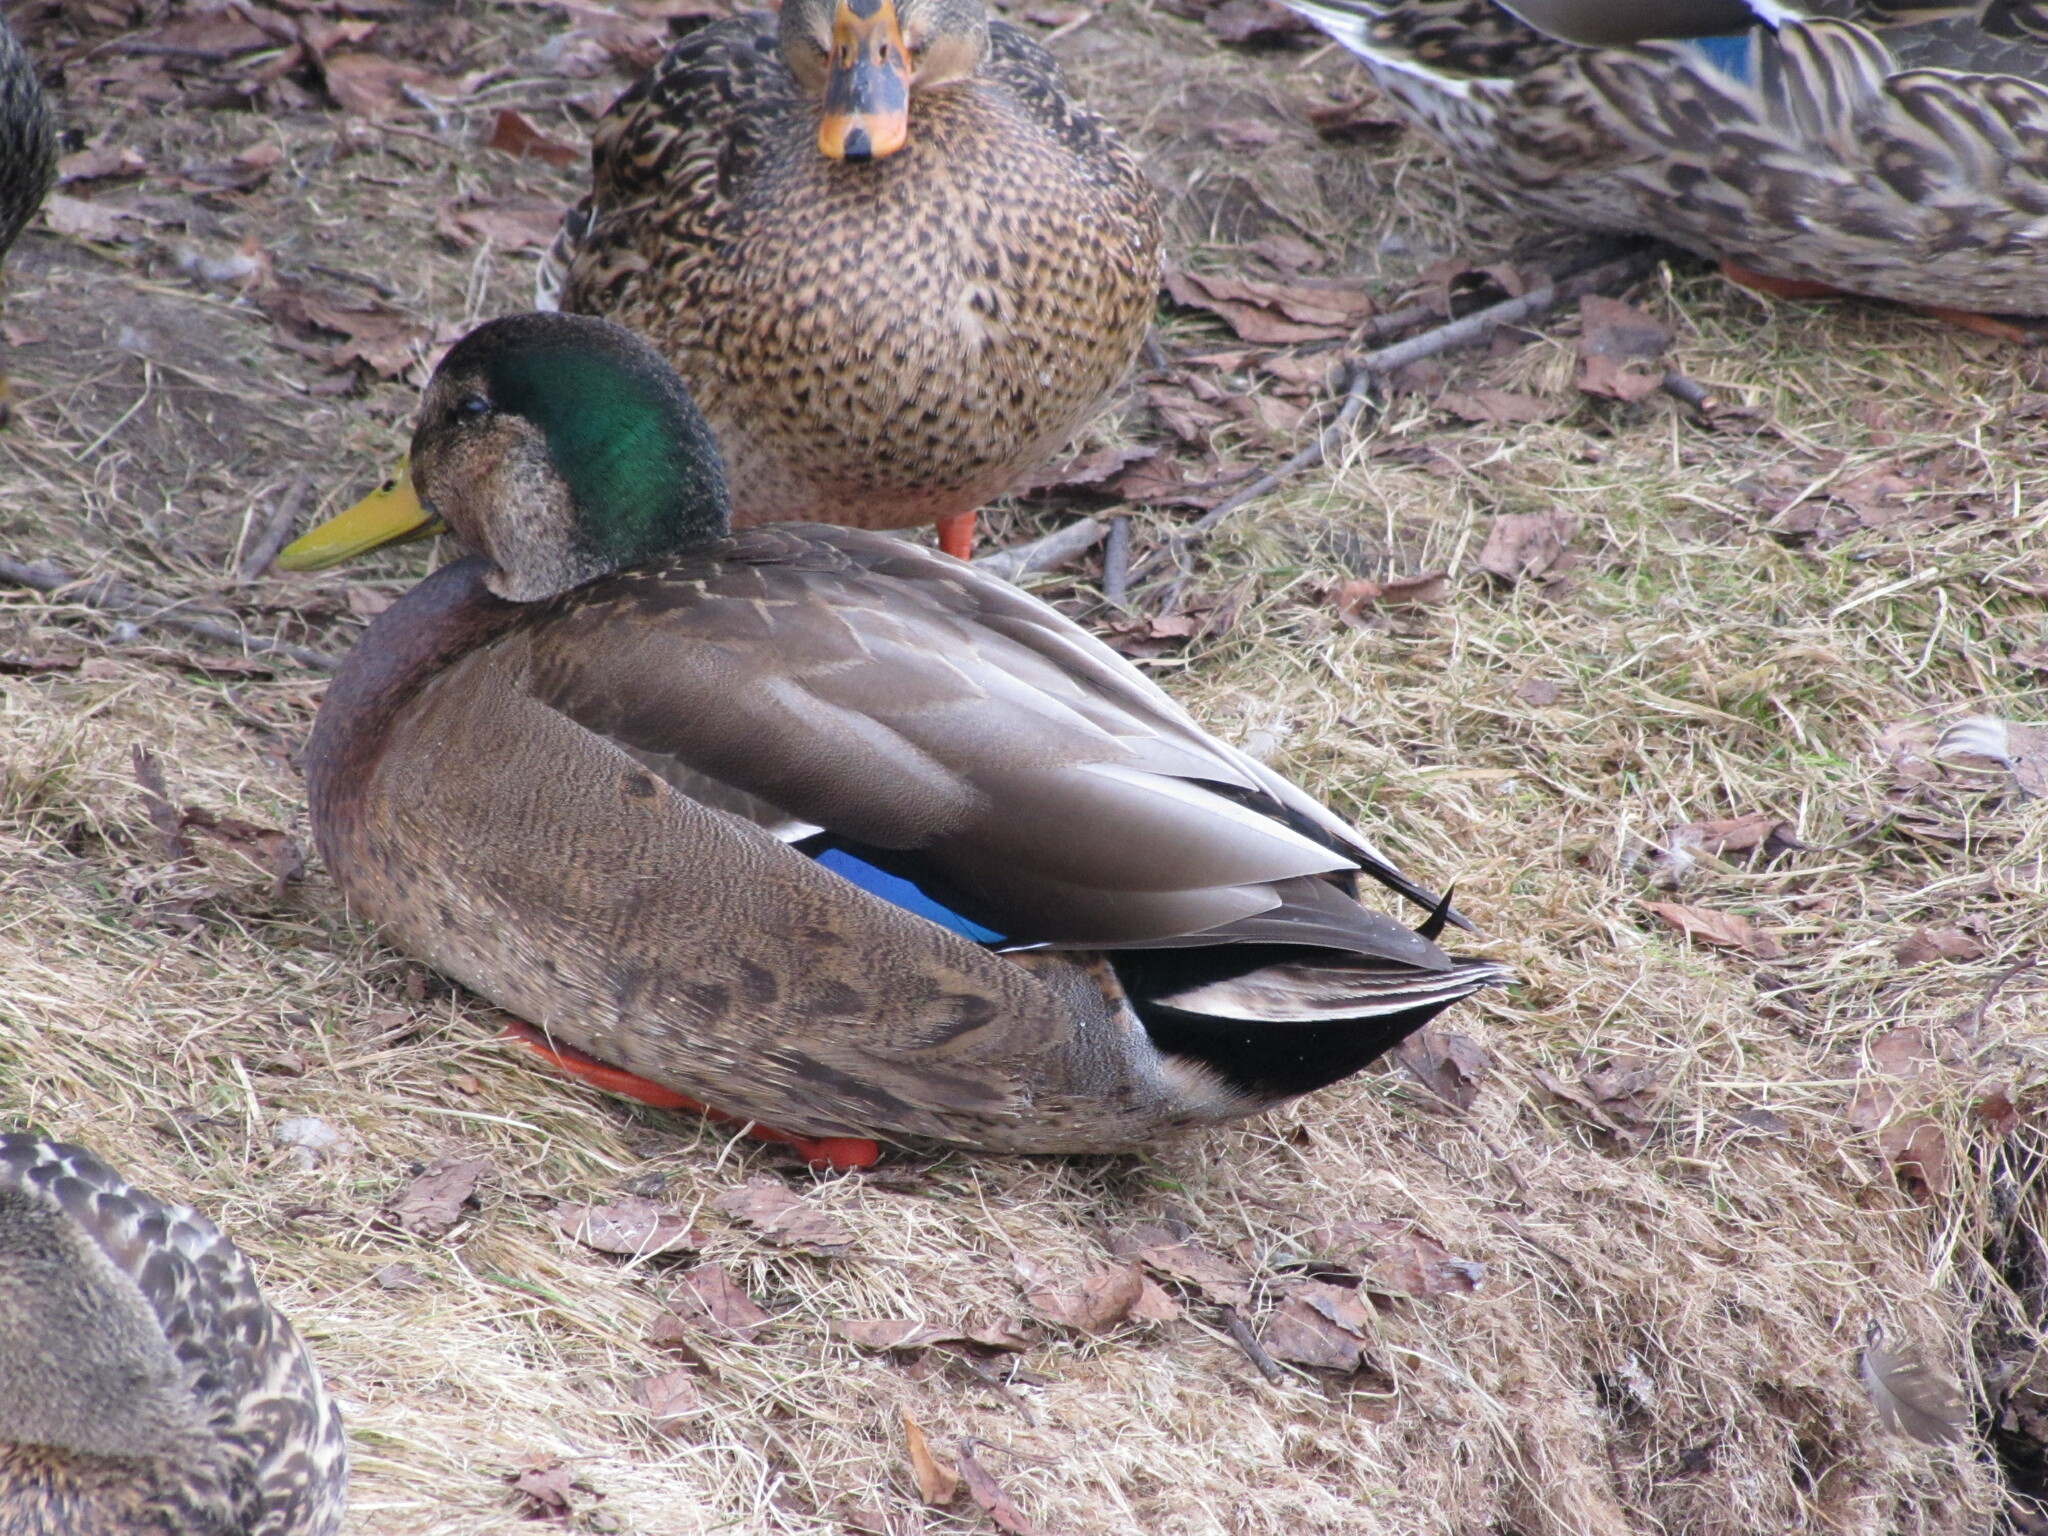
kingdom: Animalia
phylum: Chordata
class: Aves
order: Anseriformes
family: Anatidae
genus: Anas
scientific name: Anas
